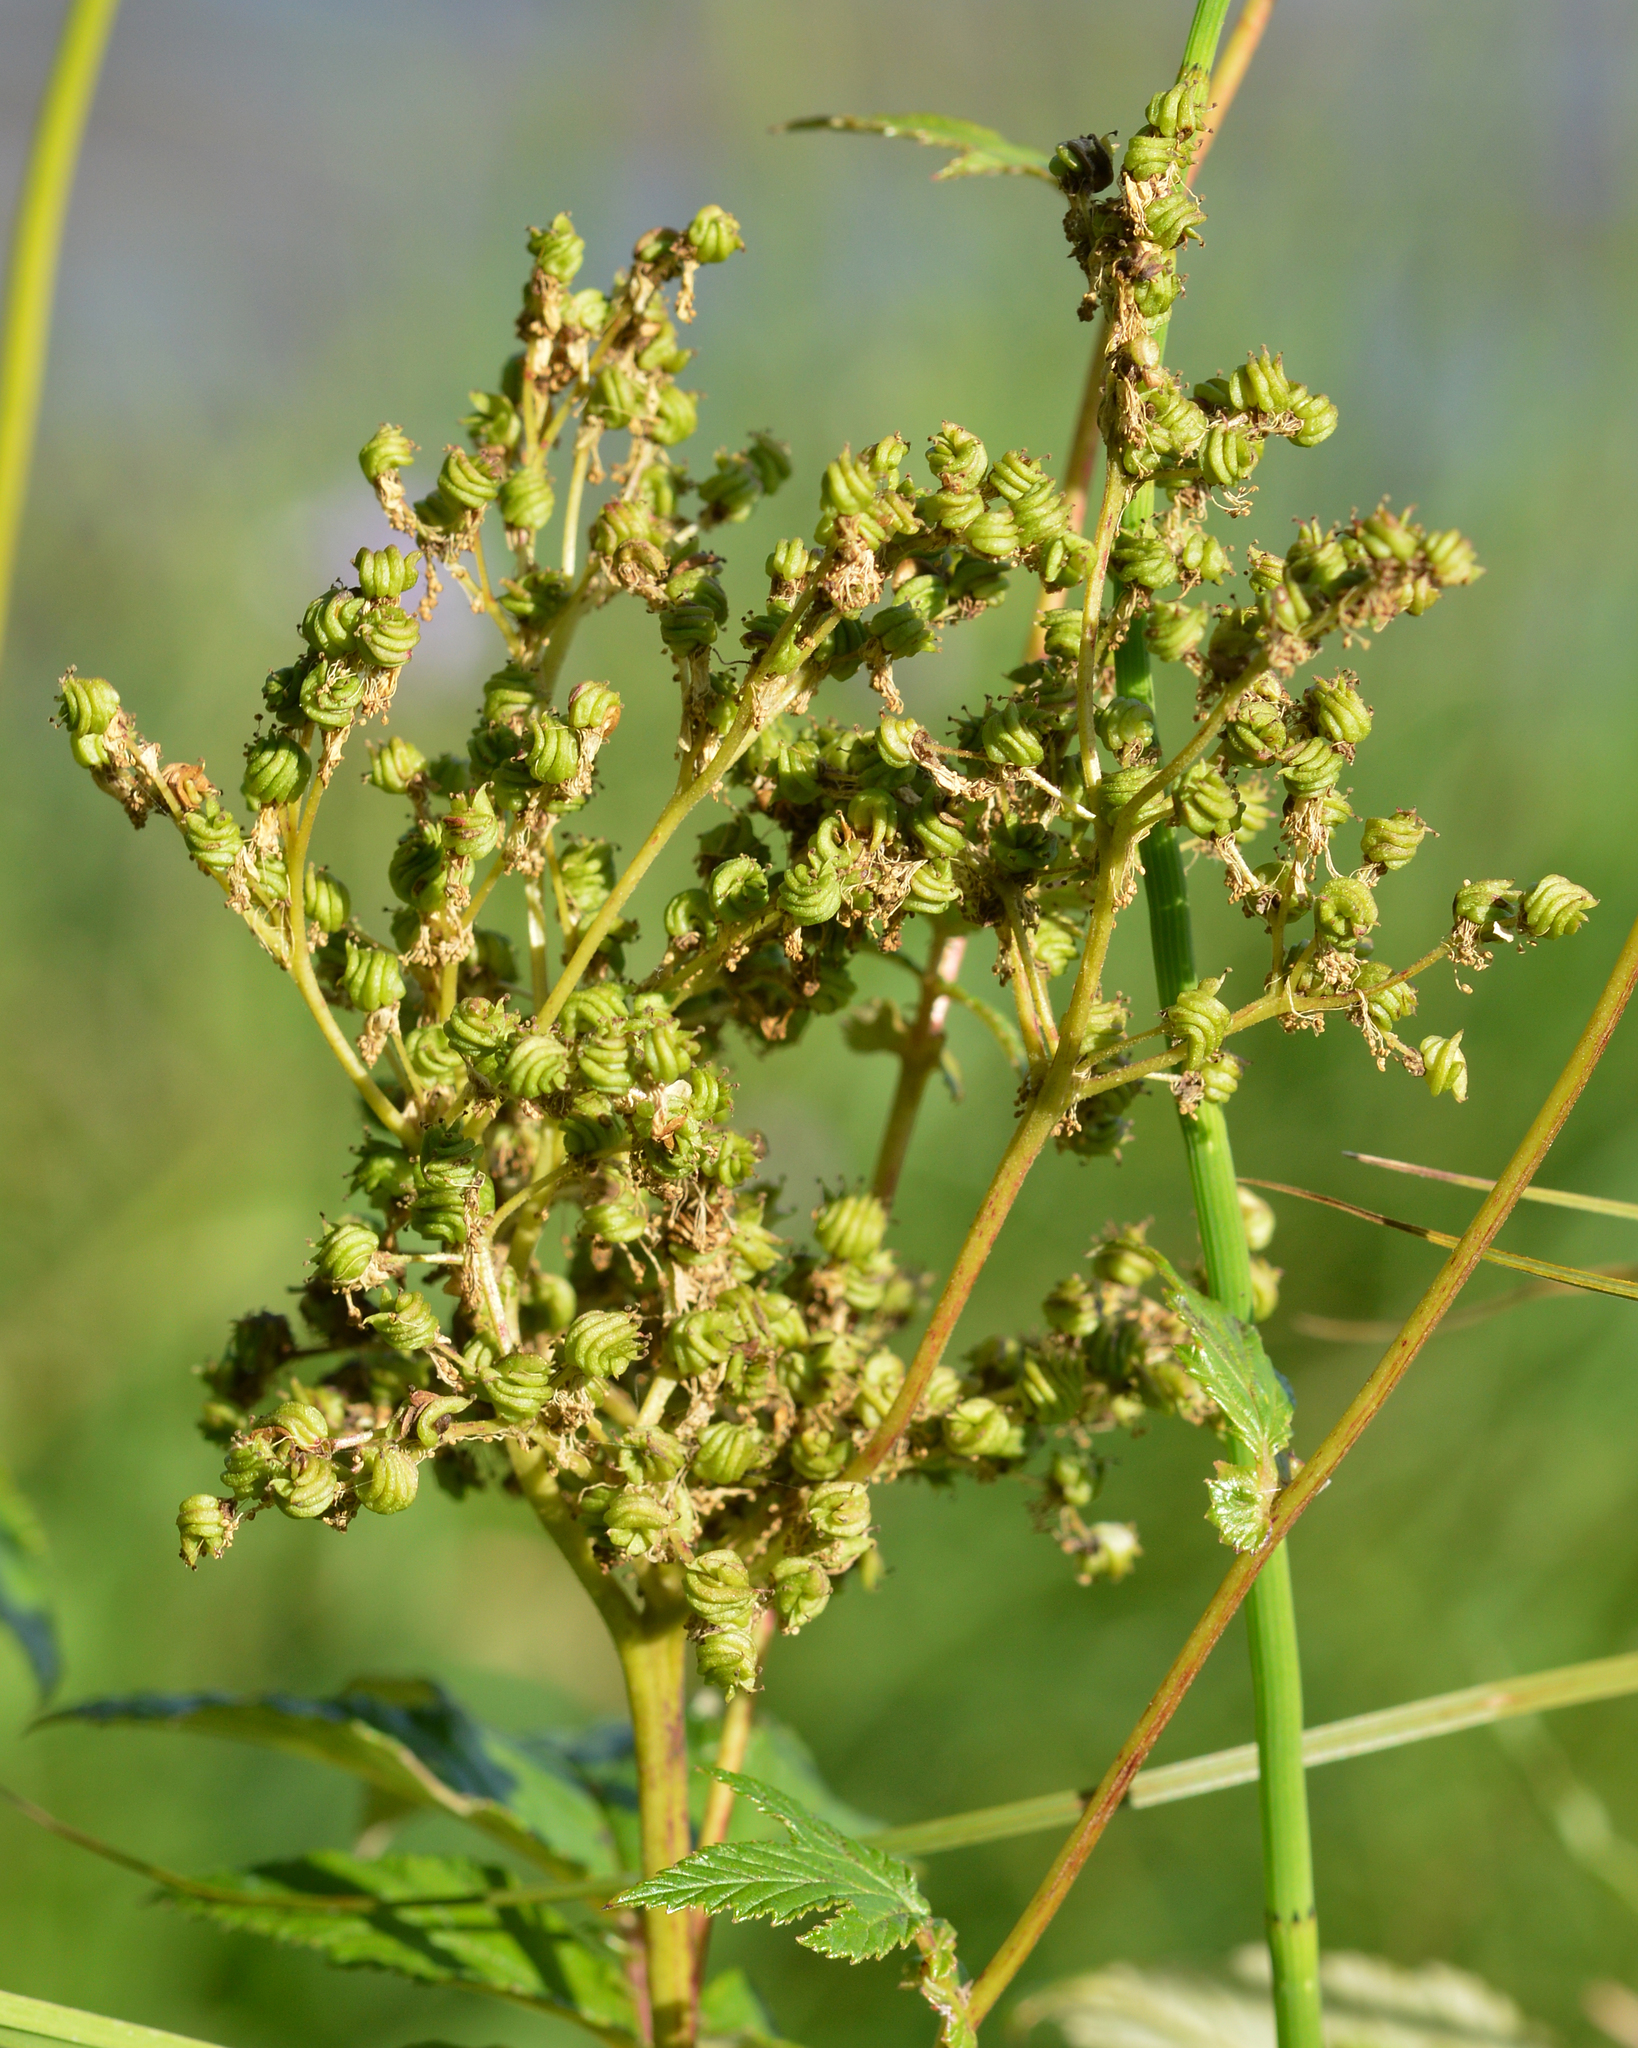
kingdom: Plantae
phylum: Tracheophyta
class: Magnoliopsida
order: Rosales
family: Rosaceae
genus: Filipendula
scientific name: Filipendula ulmaria
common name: Meadowsweet
